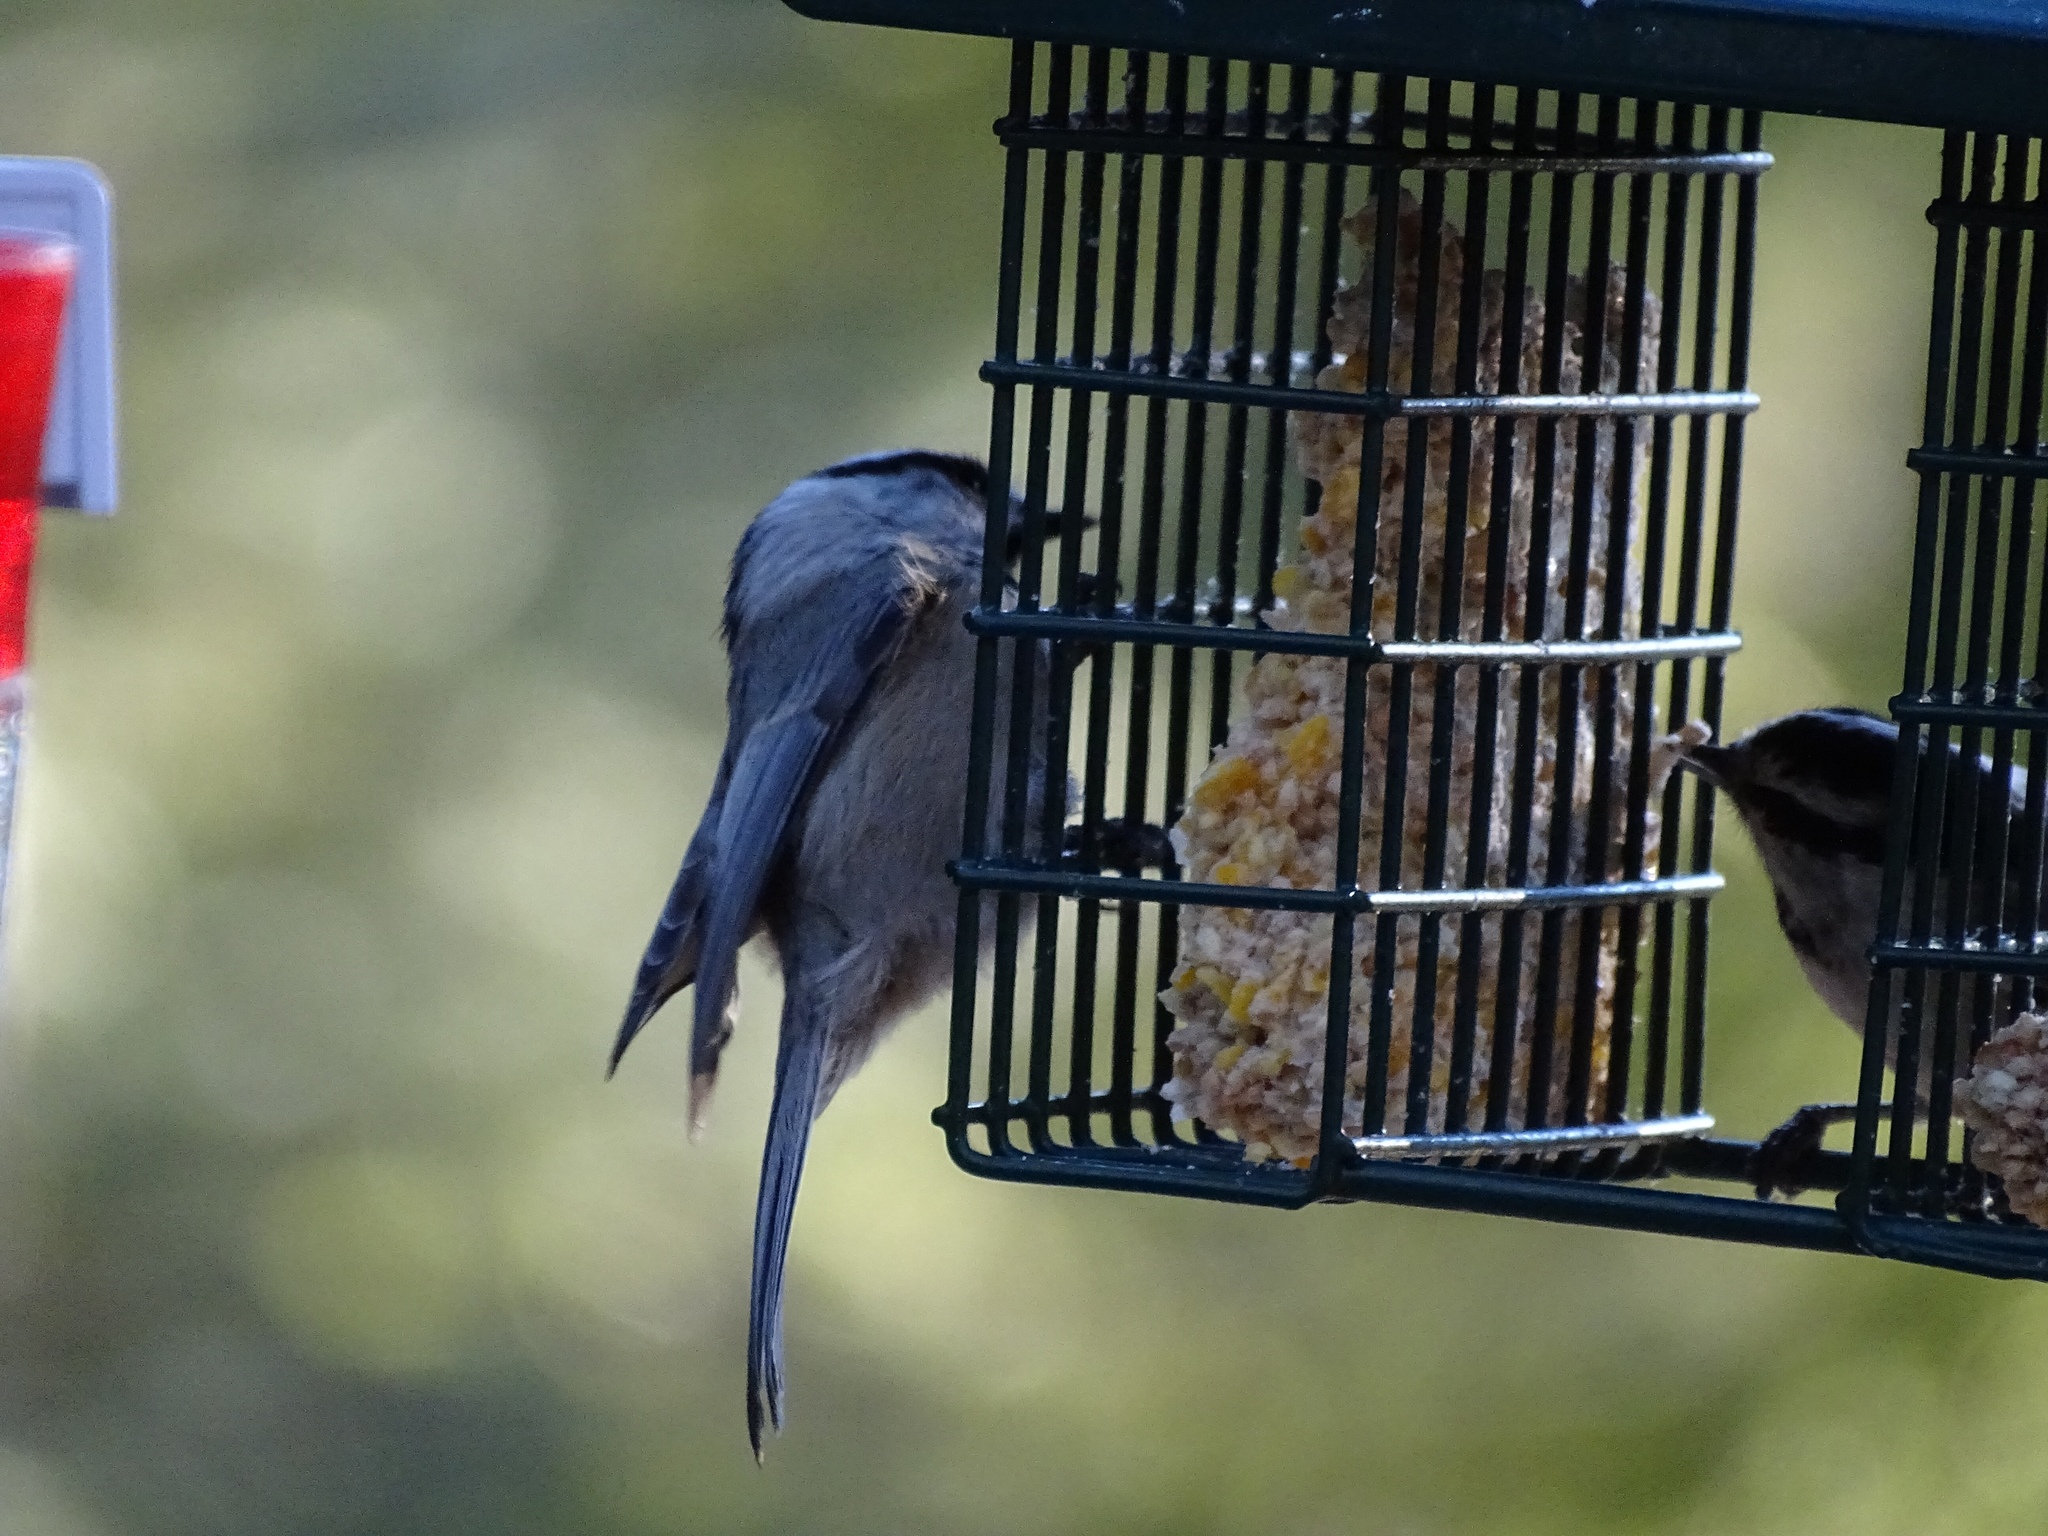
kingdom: Animalia
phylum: Chordata
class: Aves
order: Passeriformes
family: Paridae
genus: Poecile
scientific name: Poecile gambeli
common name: Mountain chickadee
